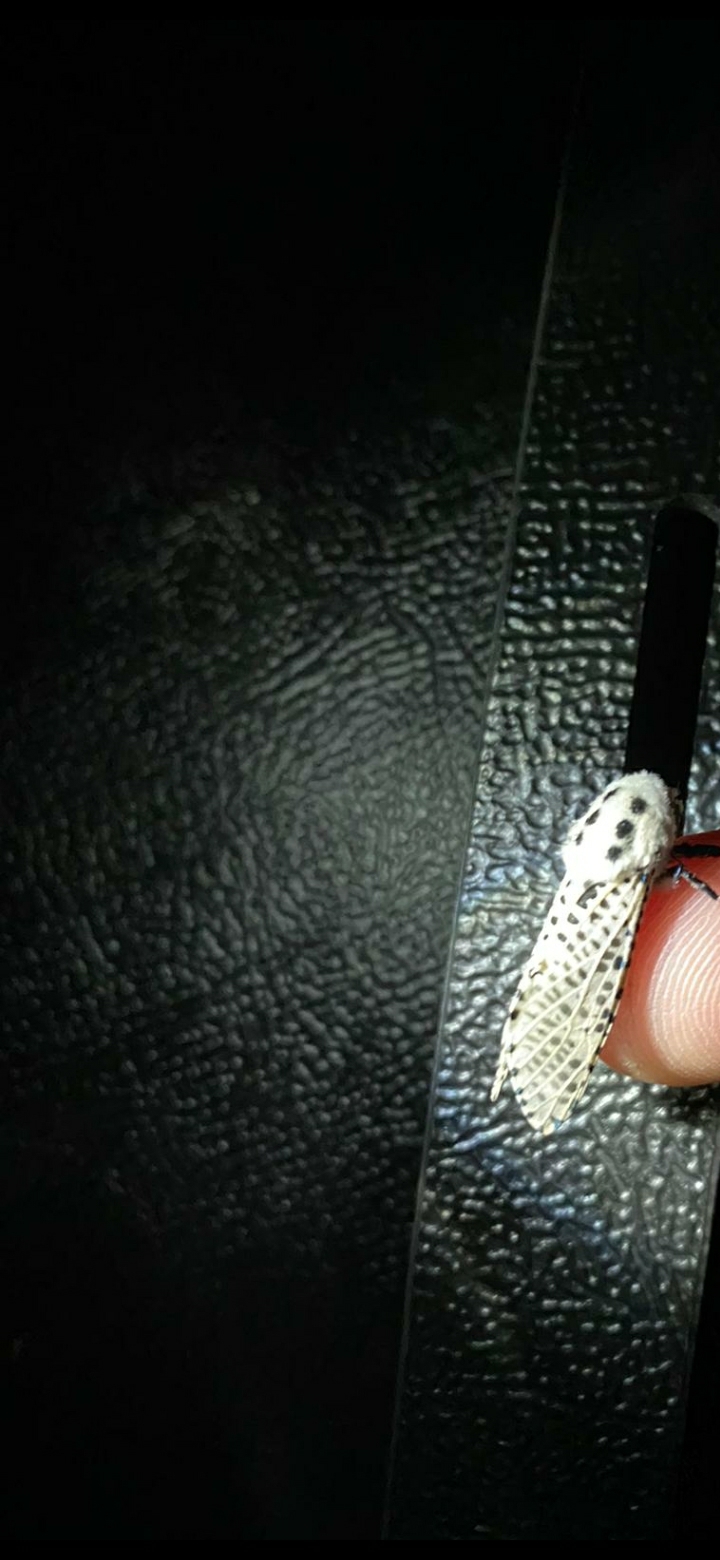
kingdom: Animalia
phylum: Arthropoda
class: Insecta
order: Lepidoptera
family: Cossidae
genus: Zeuzera
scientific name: Zeuzera pyrina
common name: Leopard moth
